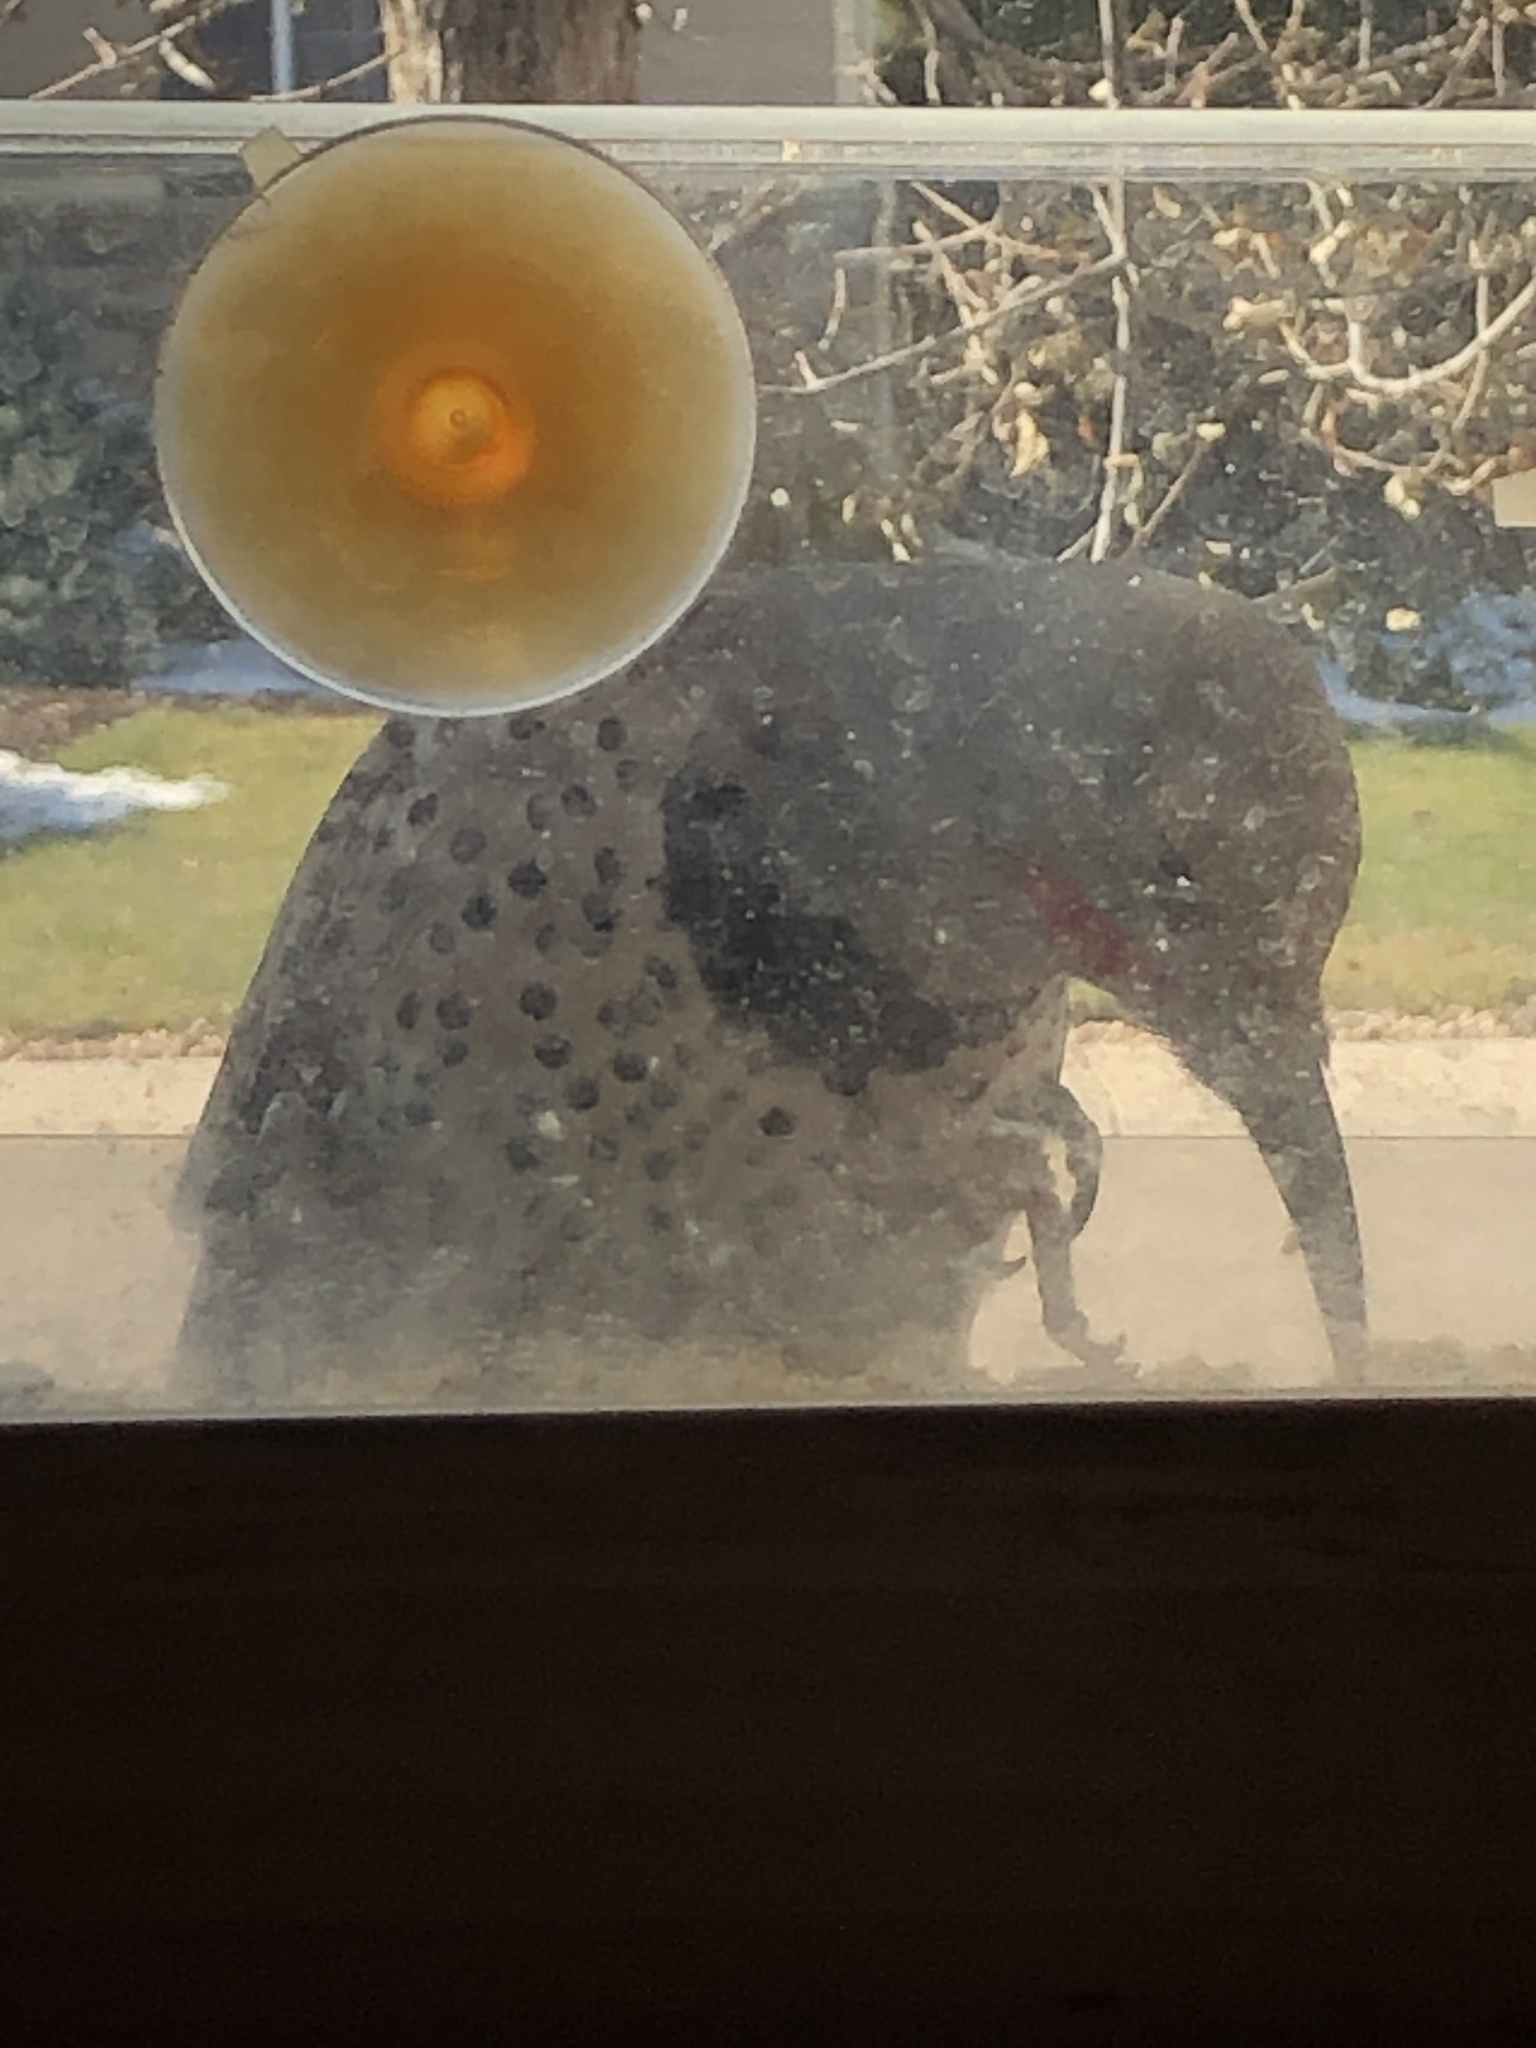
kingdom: Animalia
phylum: Chordata
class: Aves
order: Piciformes
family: Picidae
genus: Colaptes
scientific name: Colaptes auratus
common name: Northern flicker
